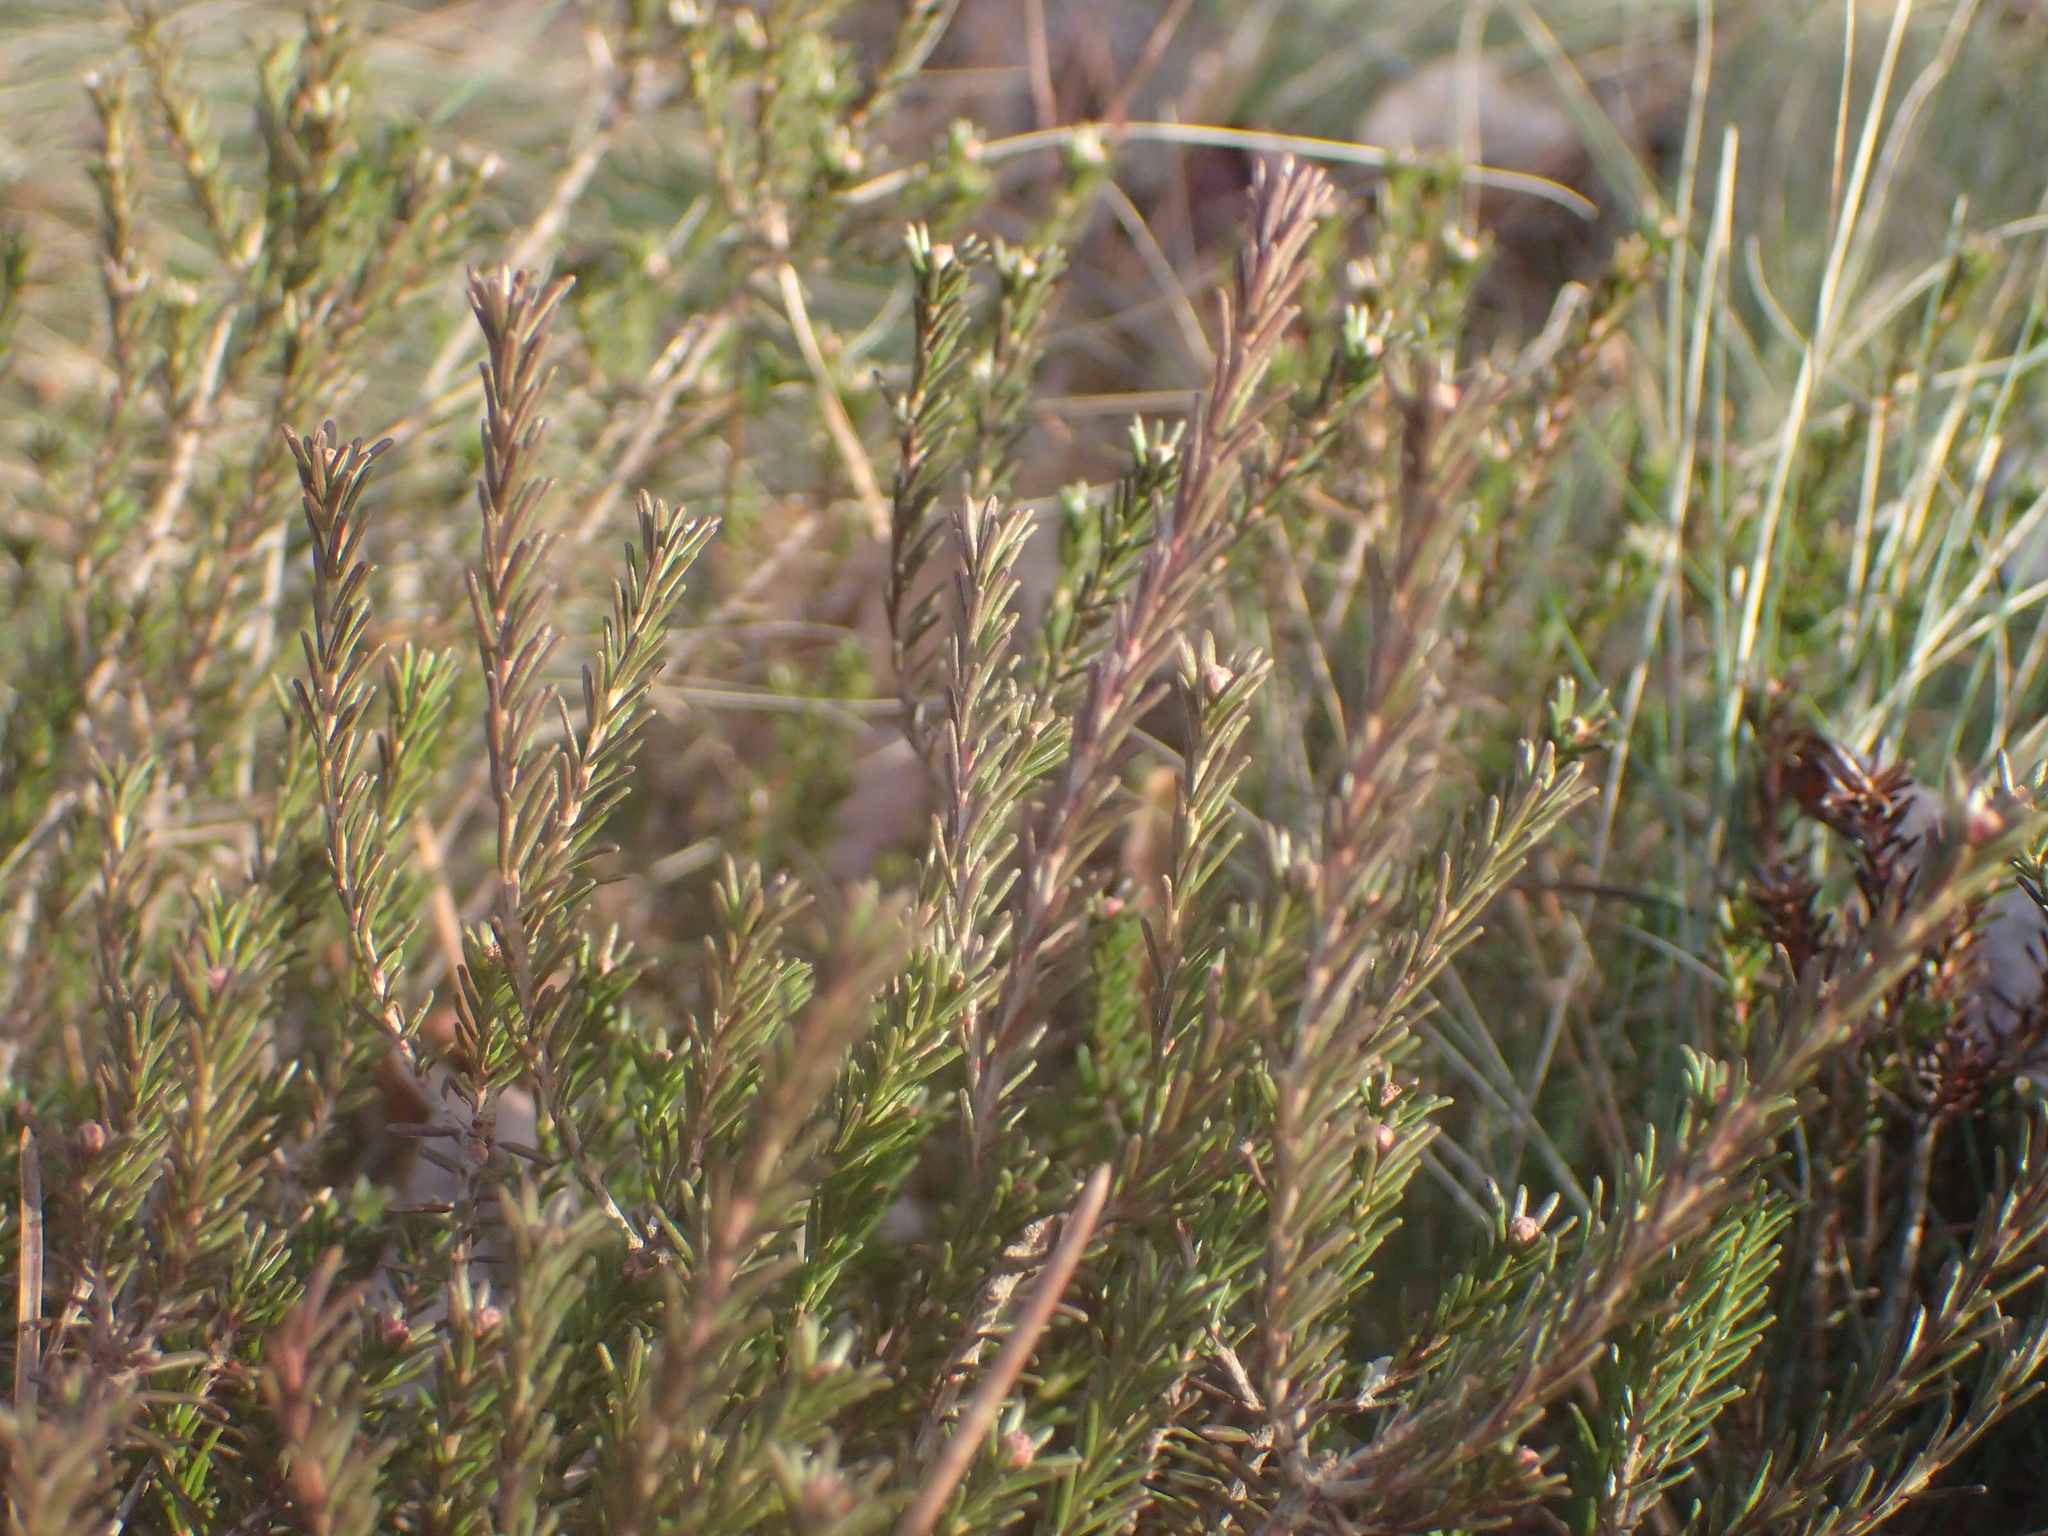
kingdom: Plantae
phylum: Tracheophyta
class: Magnoliopsida
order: Ericales
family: Ericaceae
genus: Corema
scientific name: Corema conradii
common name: Broom-crowberry
